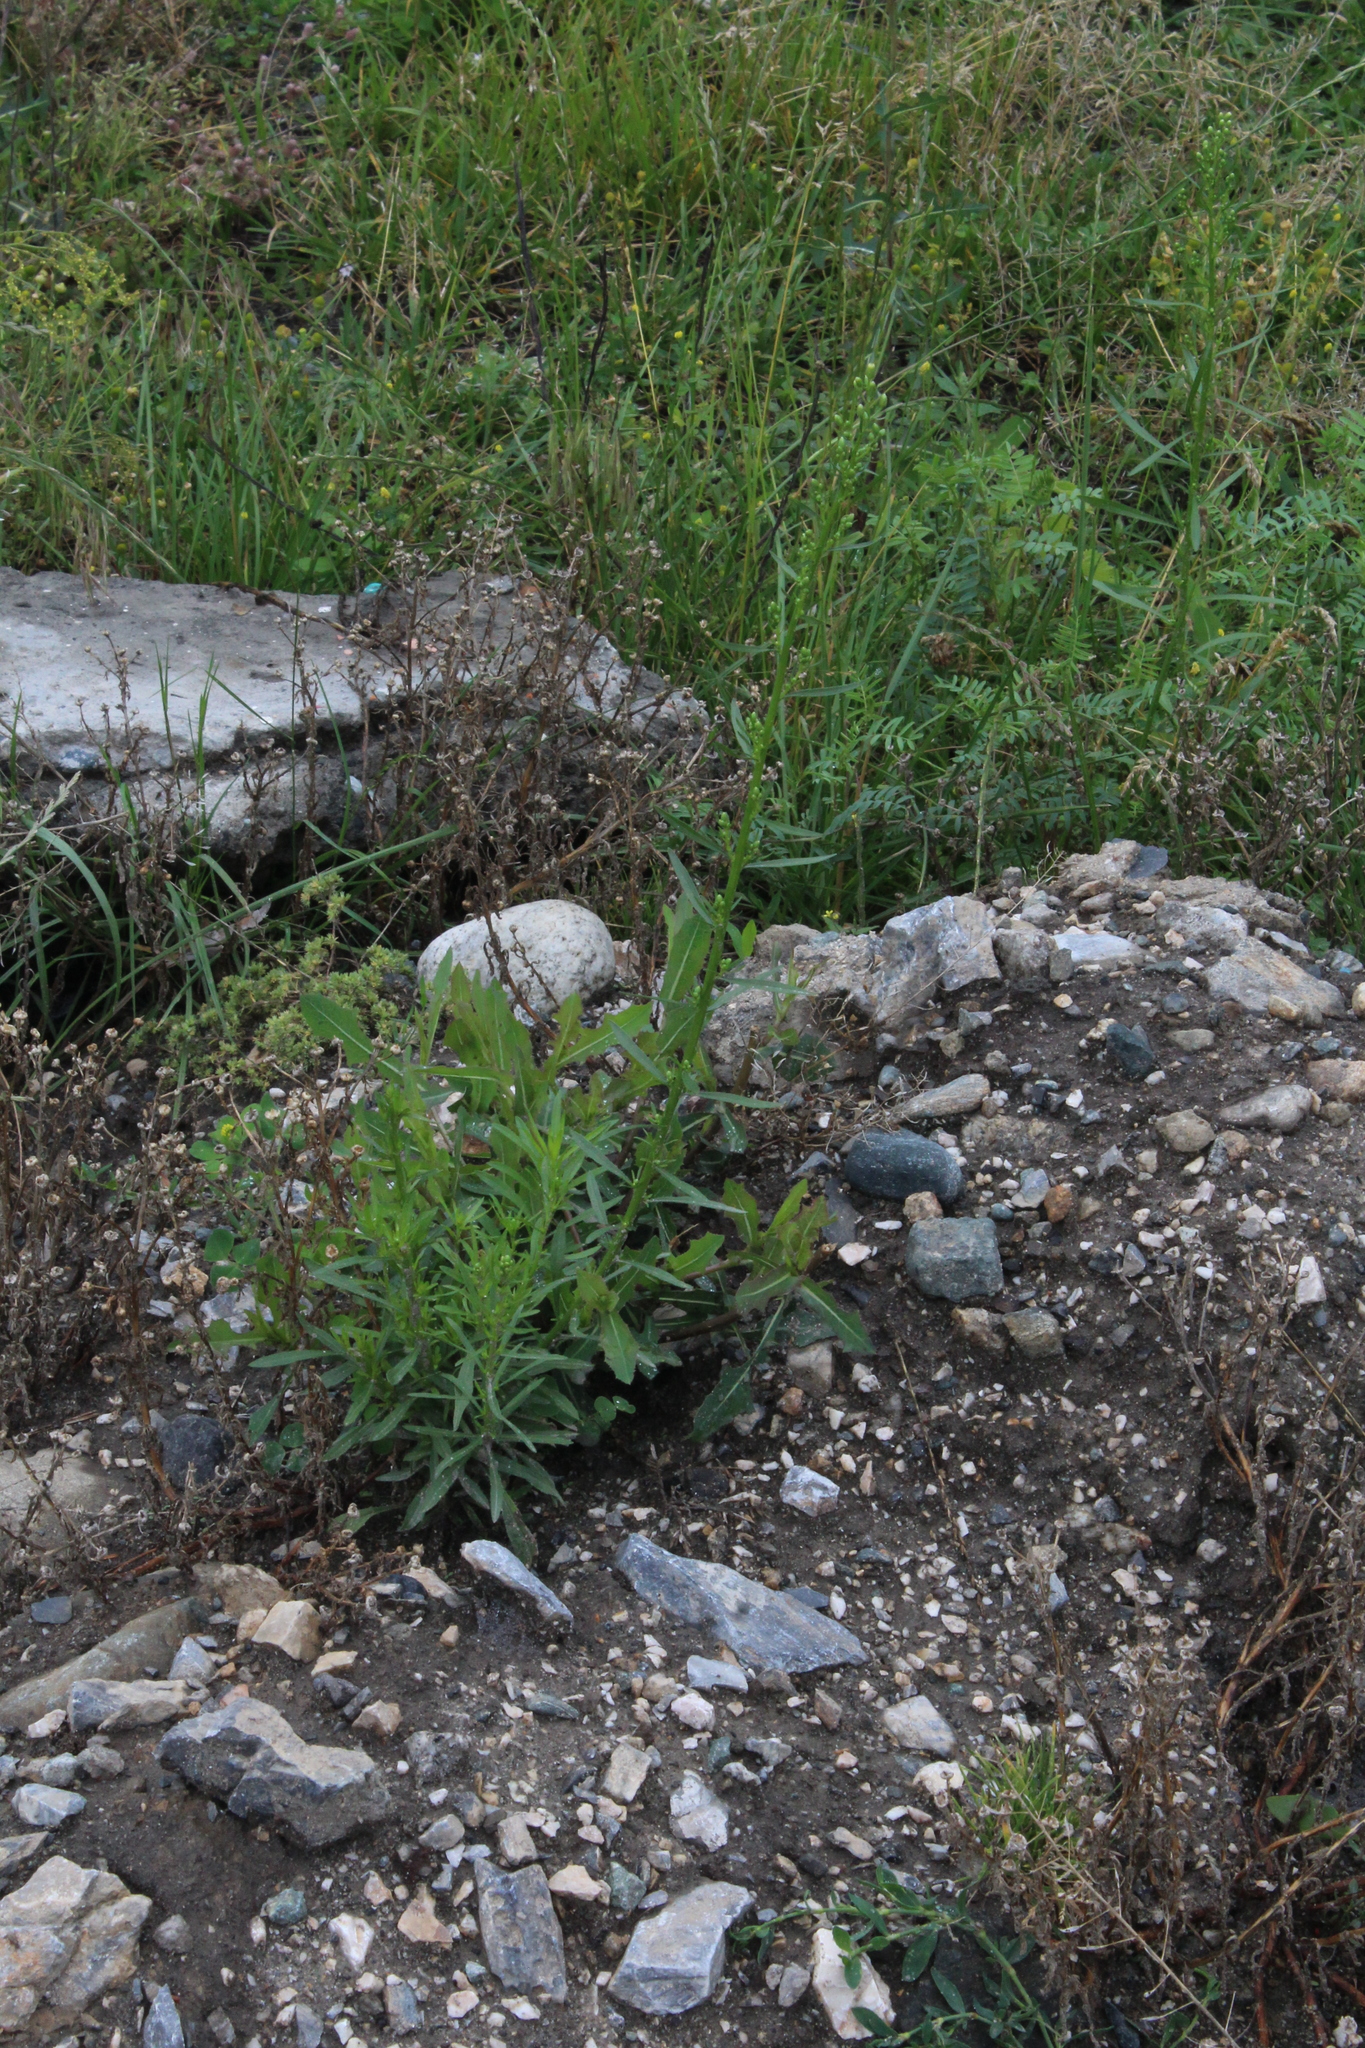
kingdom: Plantae
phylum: Tracheophyta
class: Magnoliopsida
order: Asterales
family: Asteraceae
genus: Erigeron
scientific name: Erigeron canadensis
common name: Canadian fleabane
